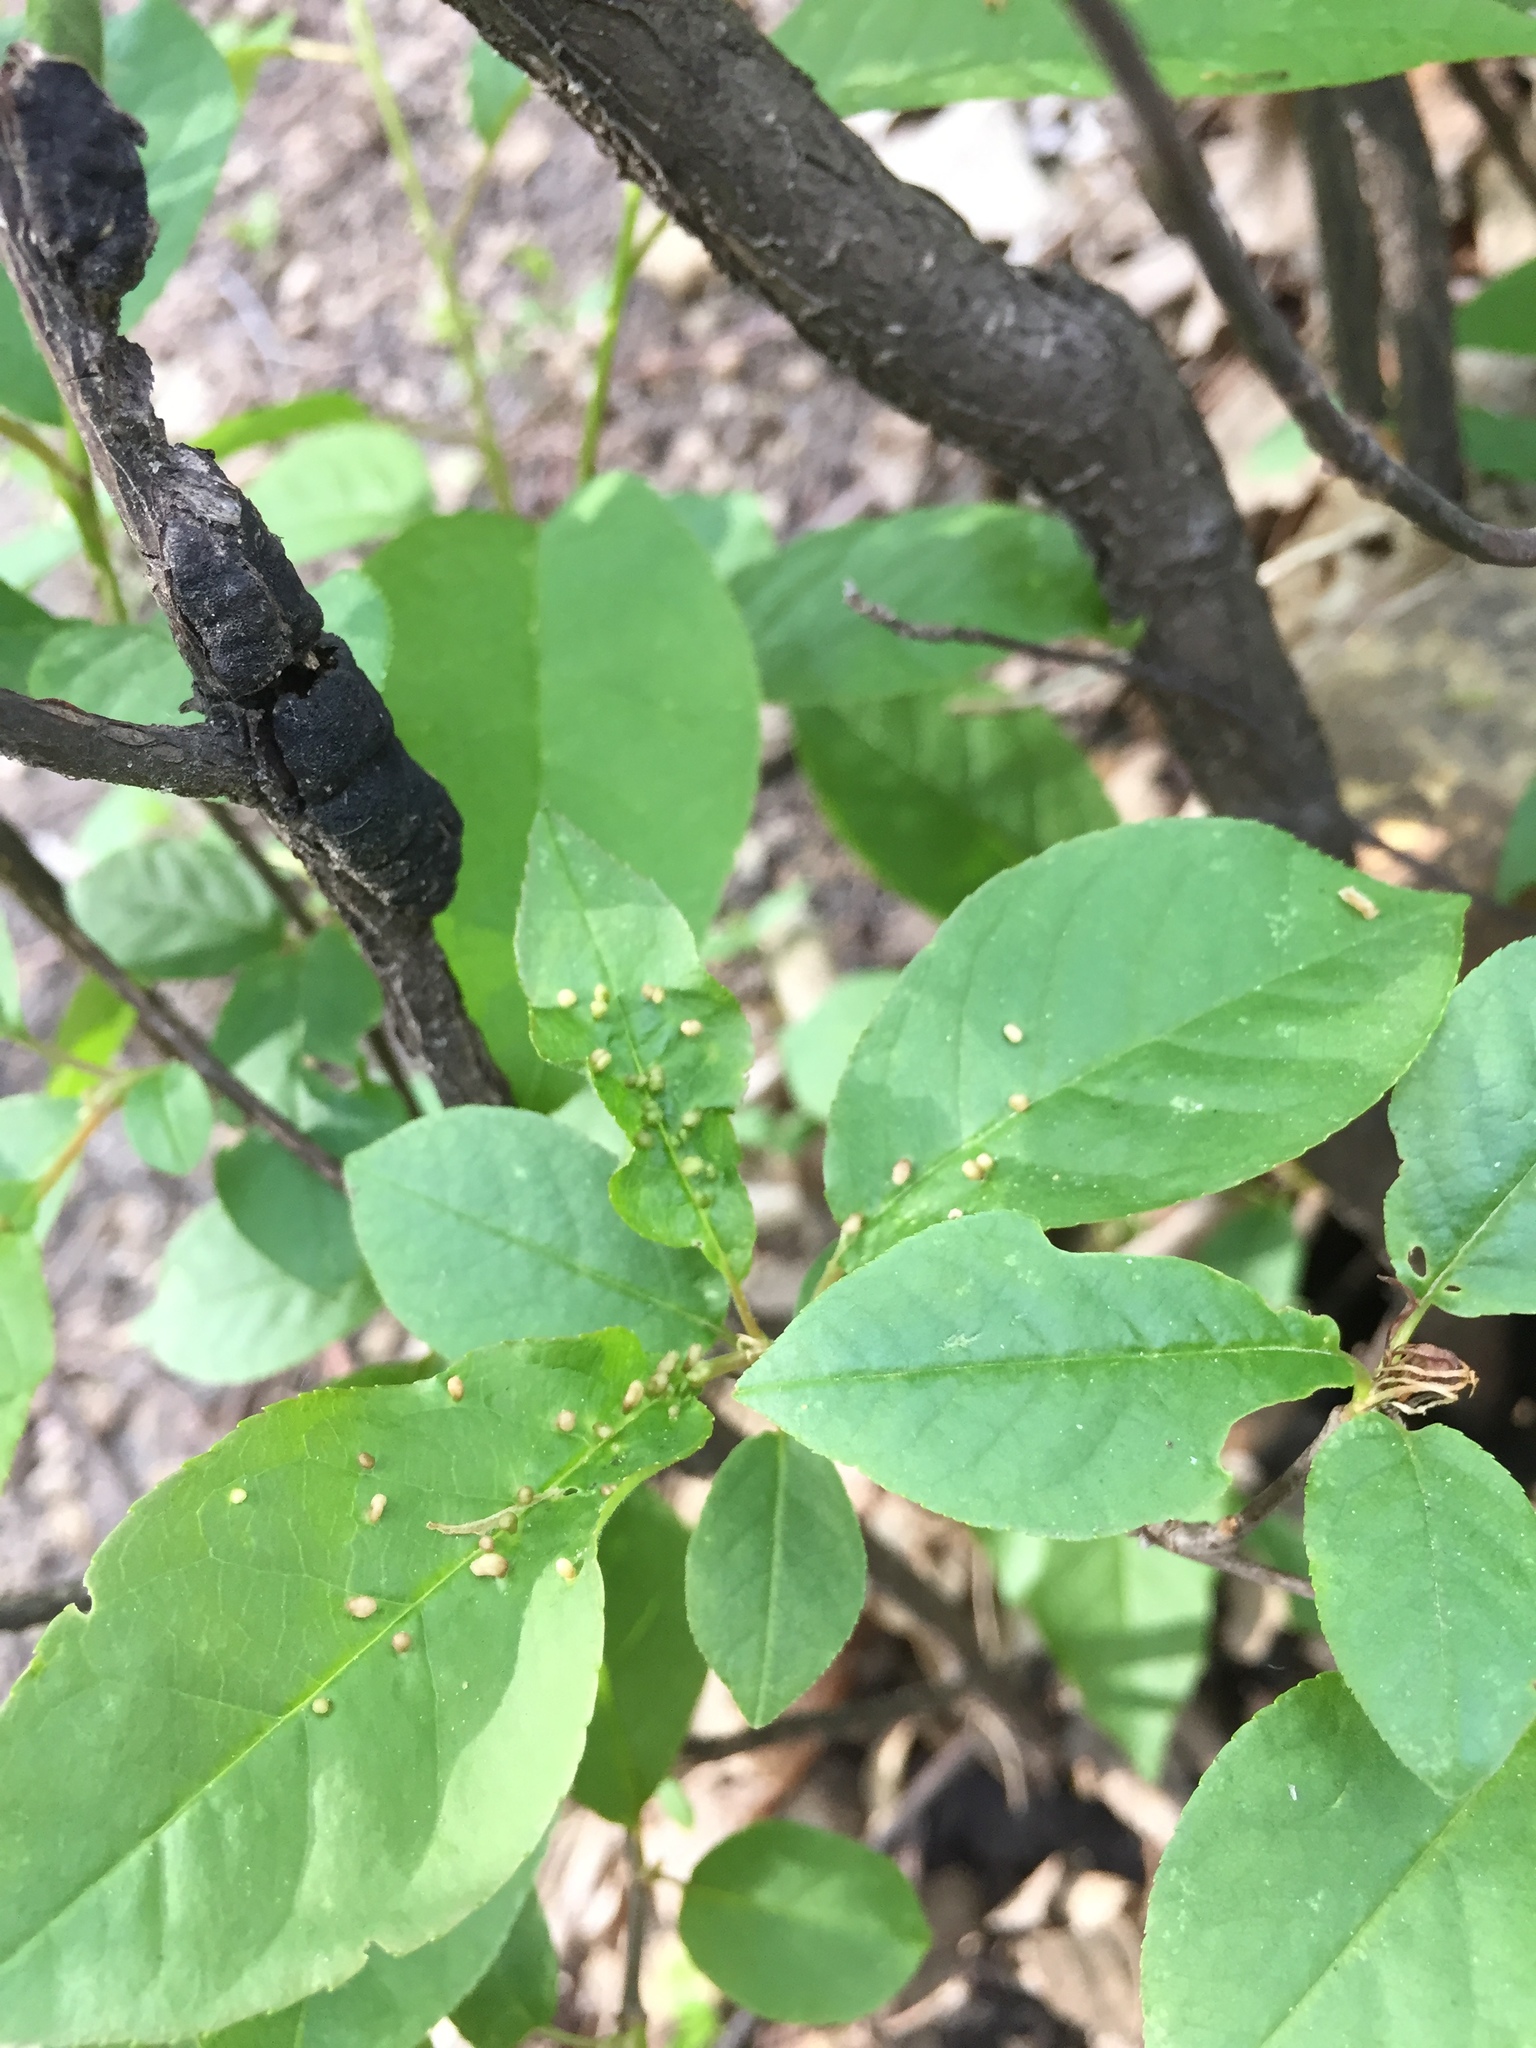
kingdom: Animalia
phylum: Arthropoda
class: Arachnida
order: Trombidiformes
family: Eriophyidae
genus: Eriophyes
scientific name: Eriophyes emarginatae
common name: Plum leaf gall mite
